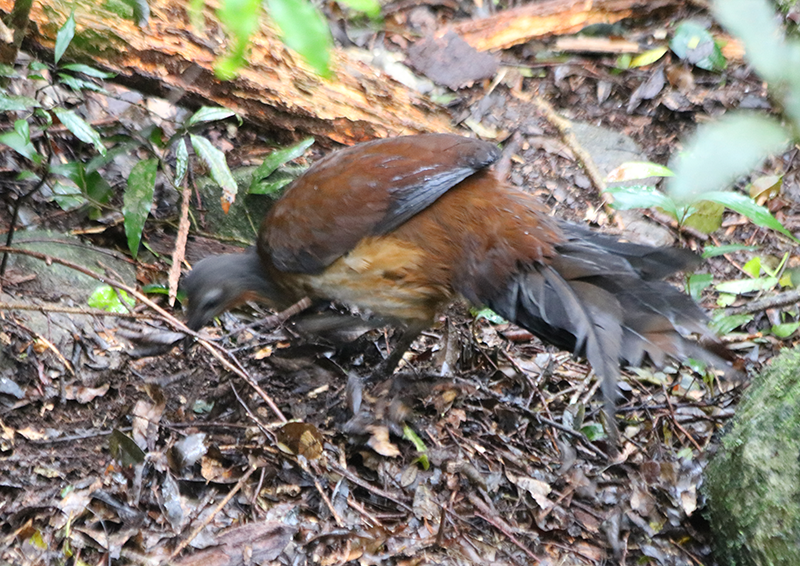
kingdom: Animalia
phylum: Chordata
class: Aves
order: Passeriformes
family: Menuridae
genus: Menura
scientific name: Menura alberti
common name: Albert's lyrebird
